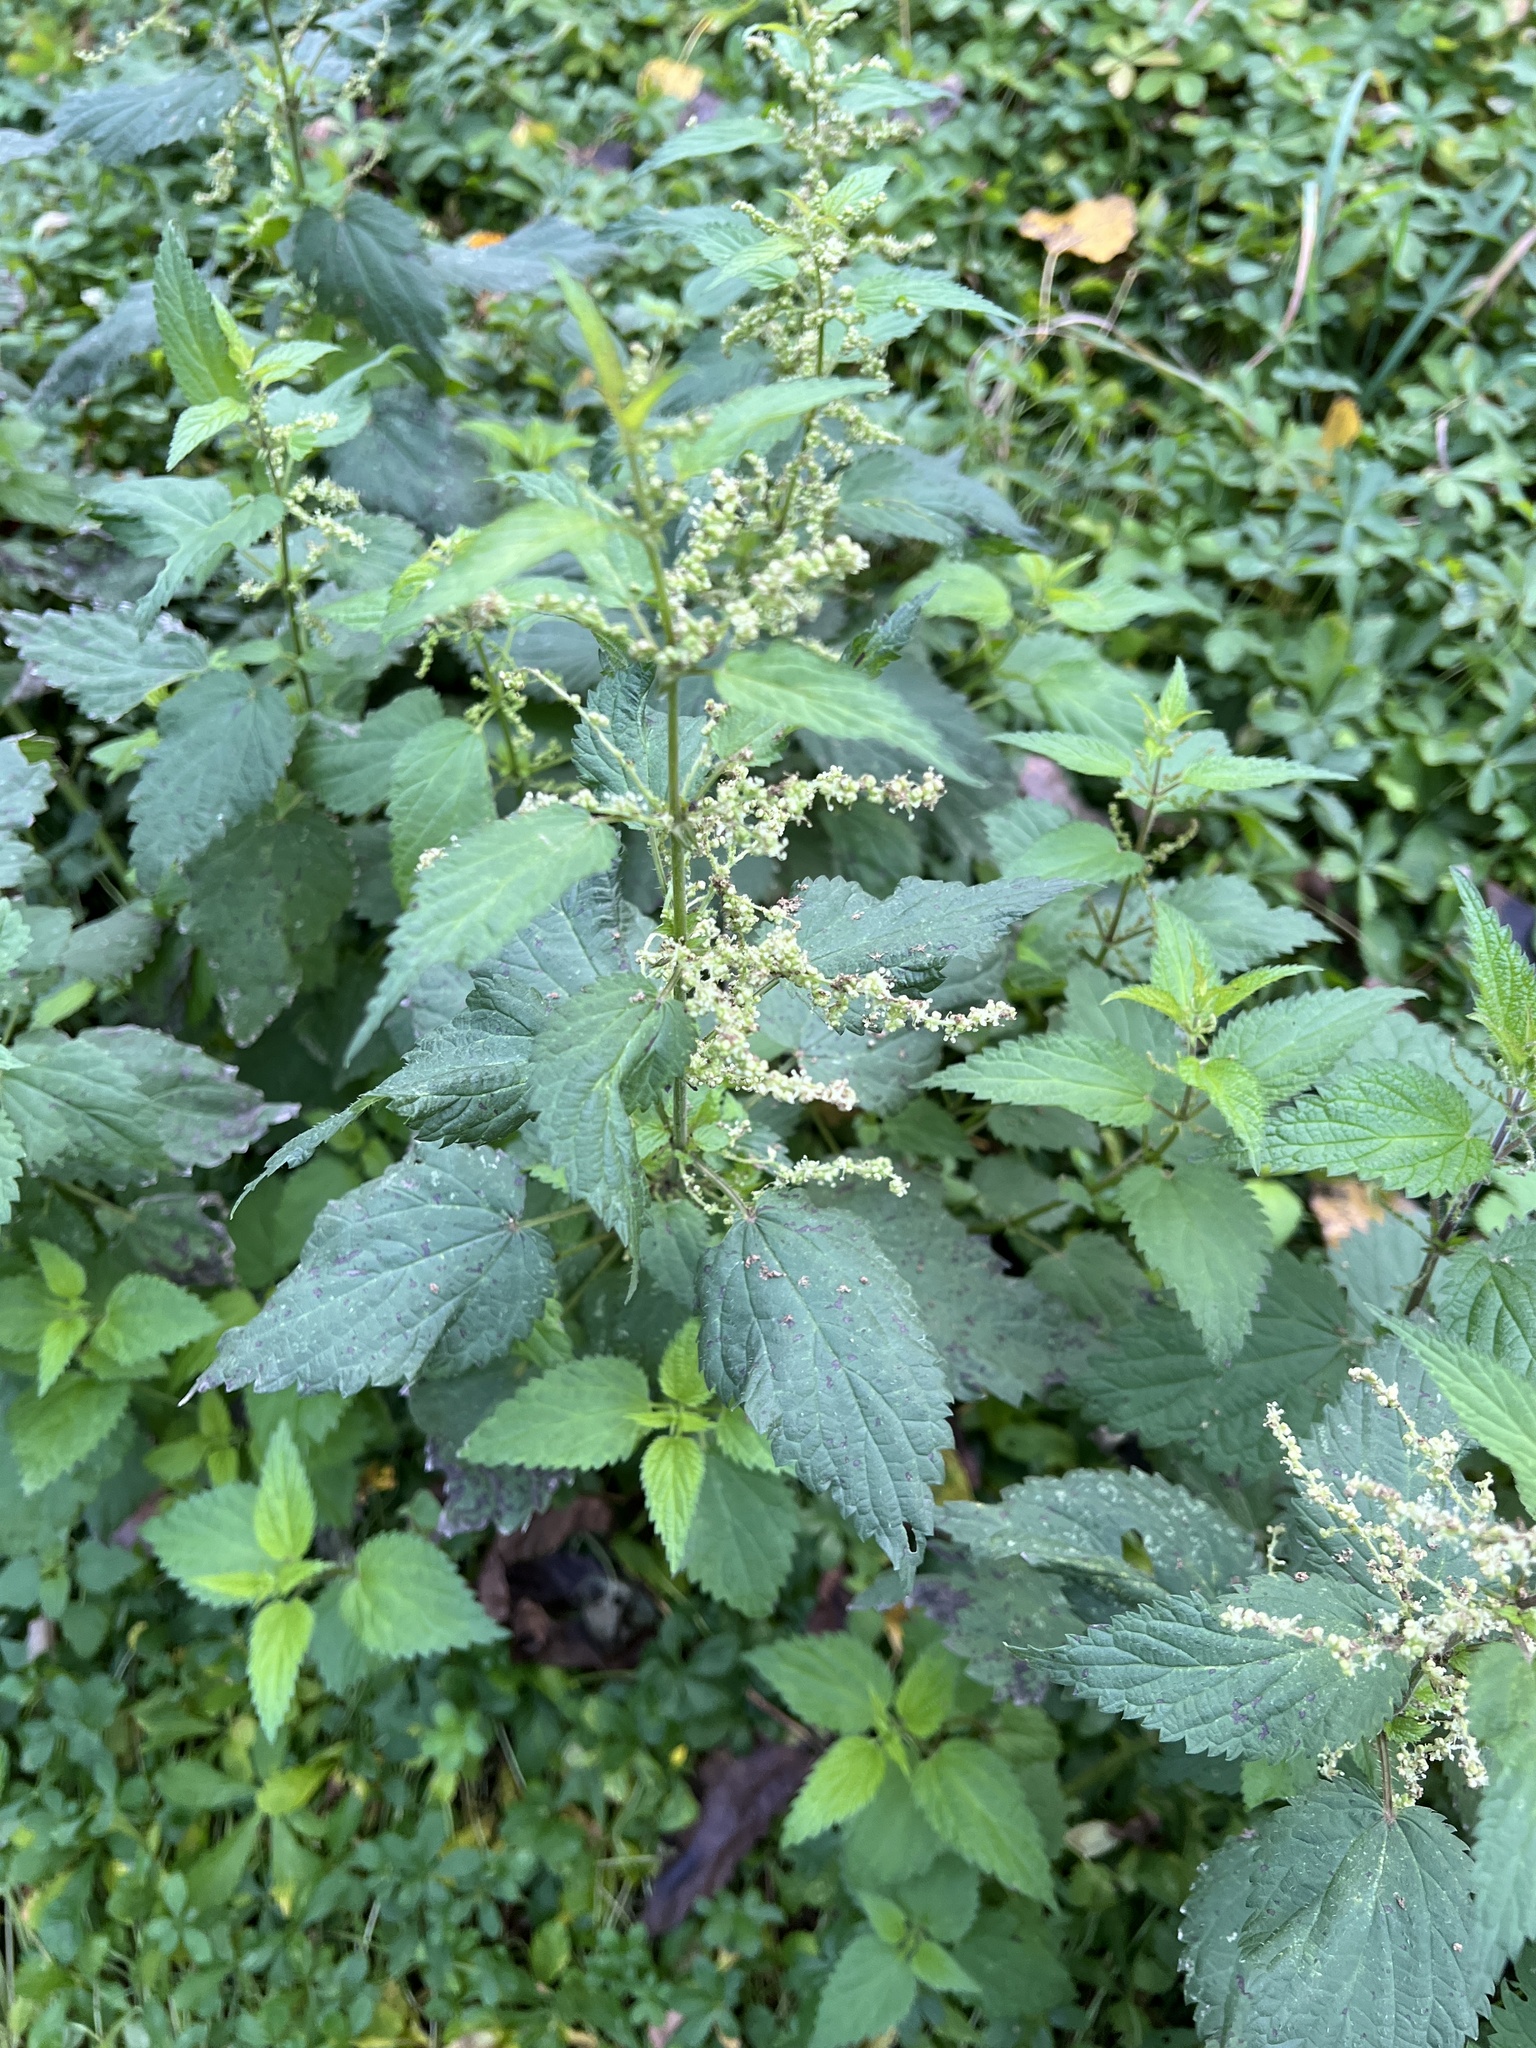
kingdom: Plantae
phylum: Tracheophyta
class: Magnoliopsida
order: Rosales
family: Urticaceae
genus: Urtica
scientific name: Urtica dioica
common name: Common nettle
